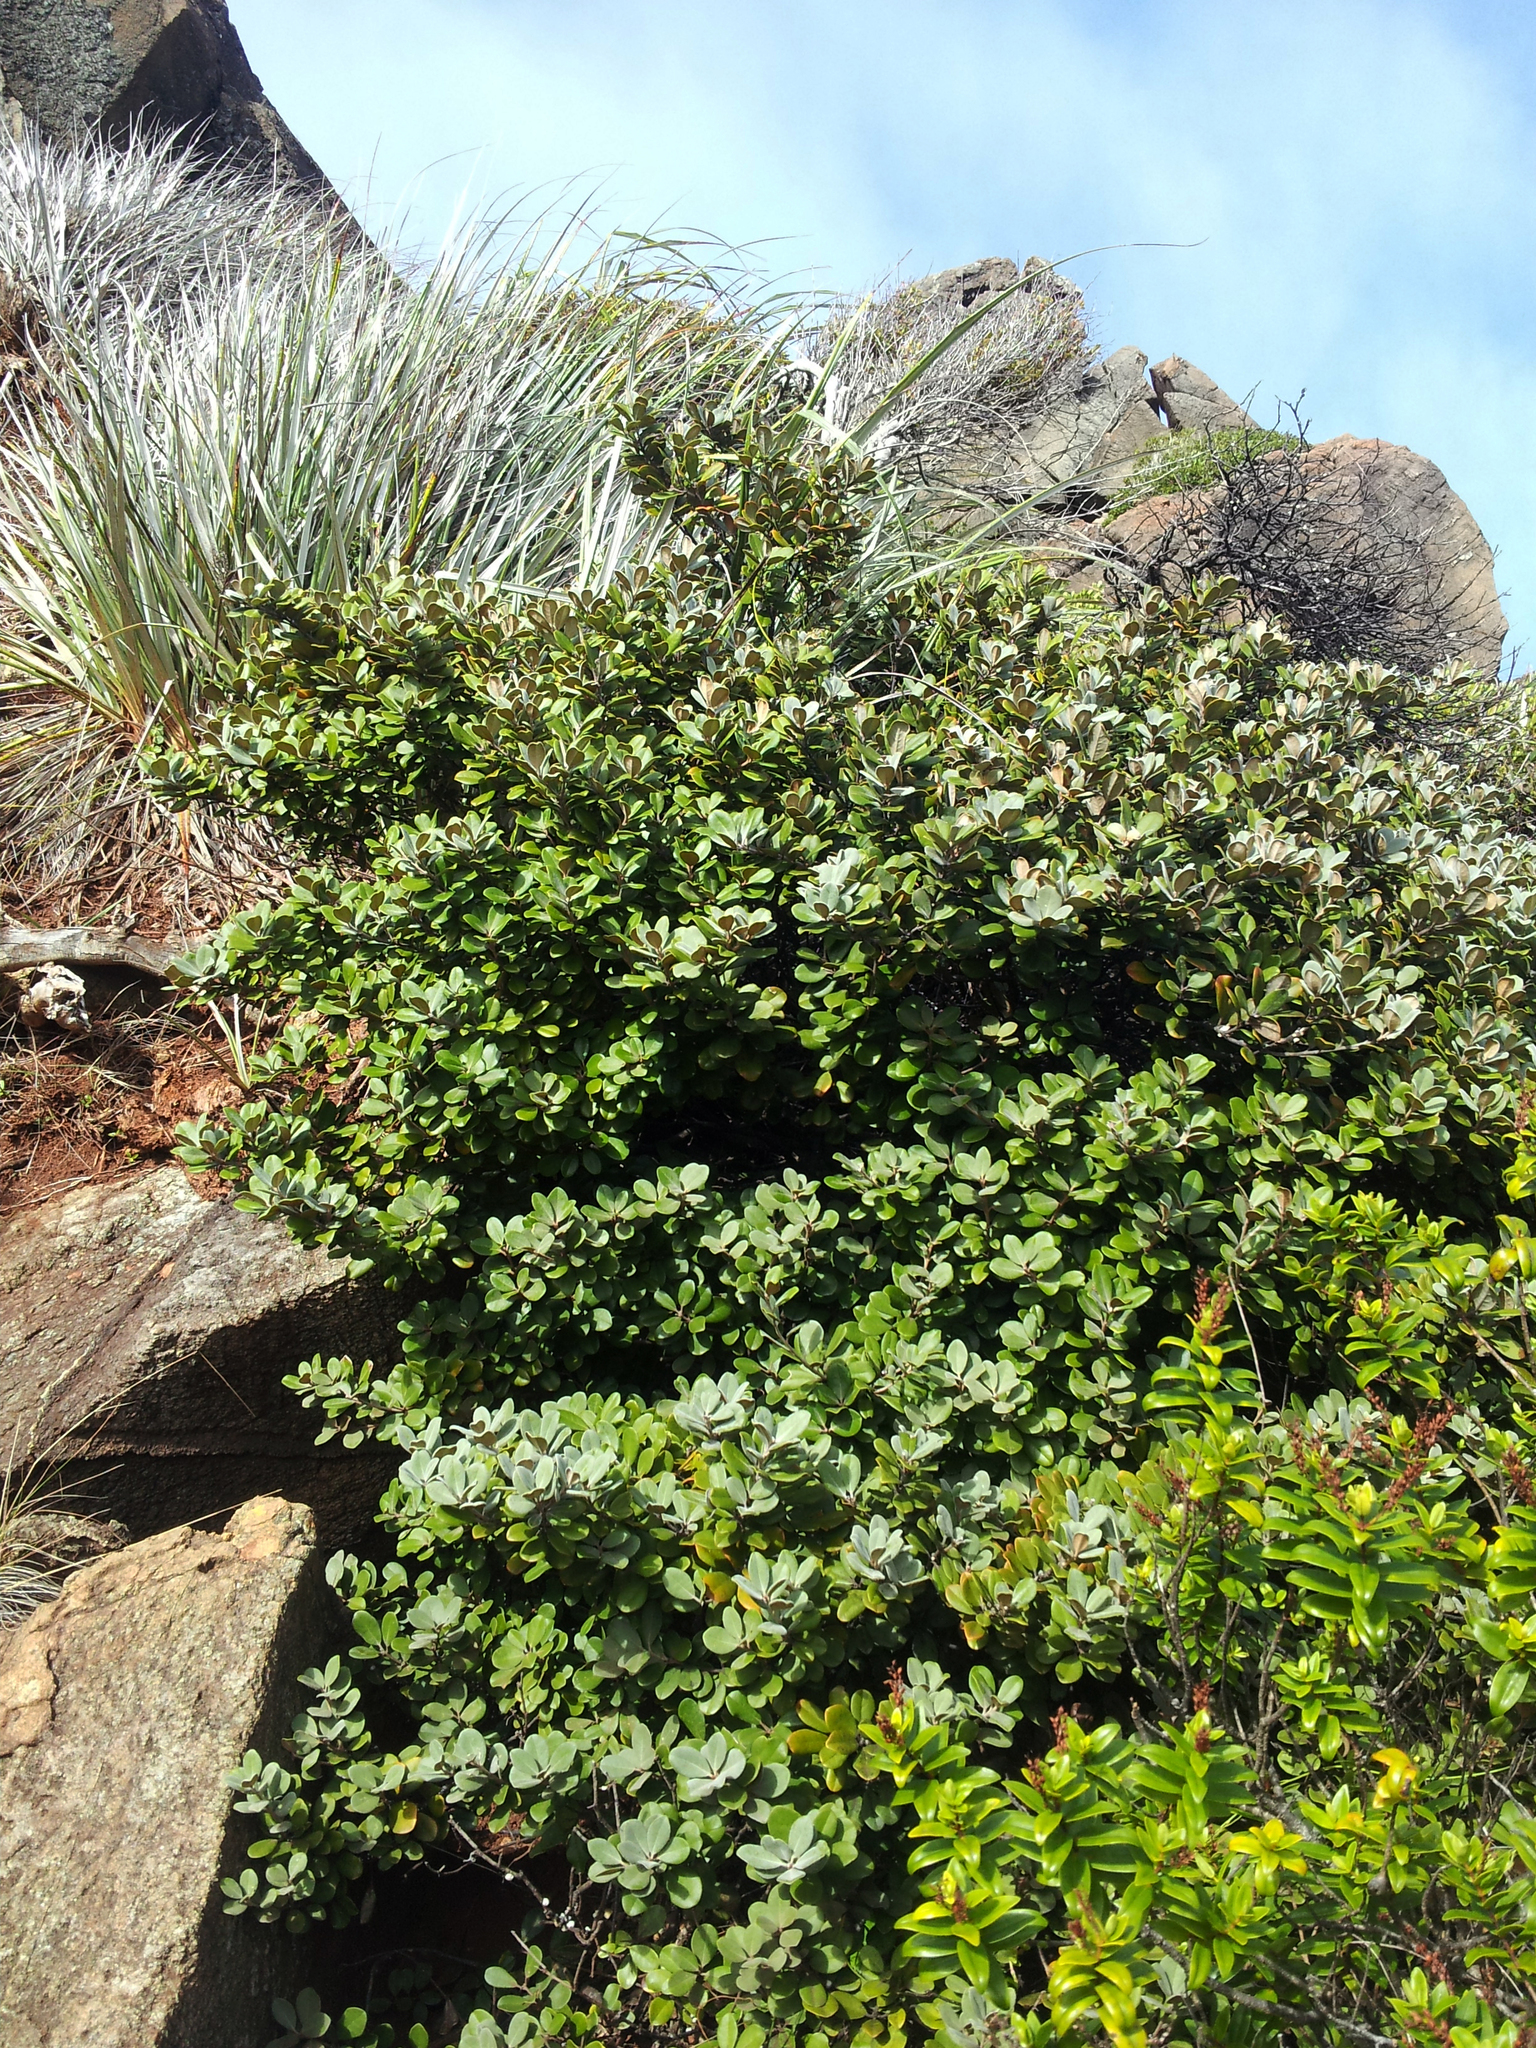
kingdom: Plantae
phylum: Tracheophyta
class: Magnoliopsida
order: Apiales
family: Pittosporaceae
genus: Pittosporum
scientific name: Pittosporum serpentinum
